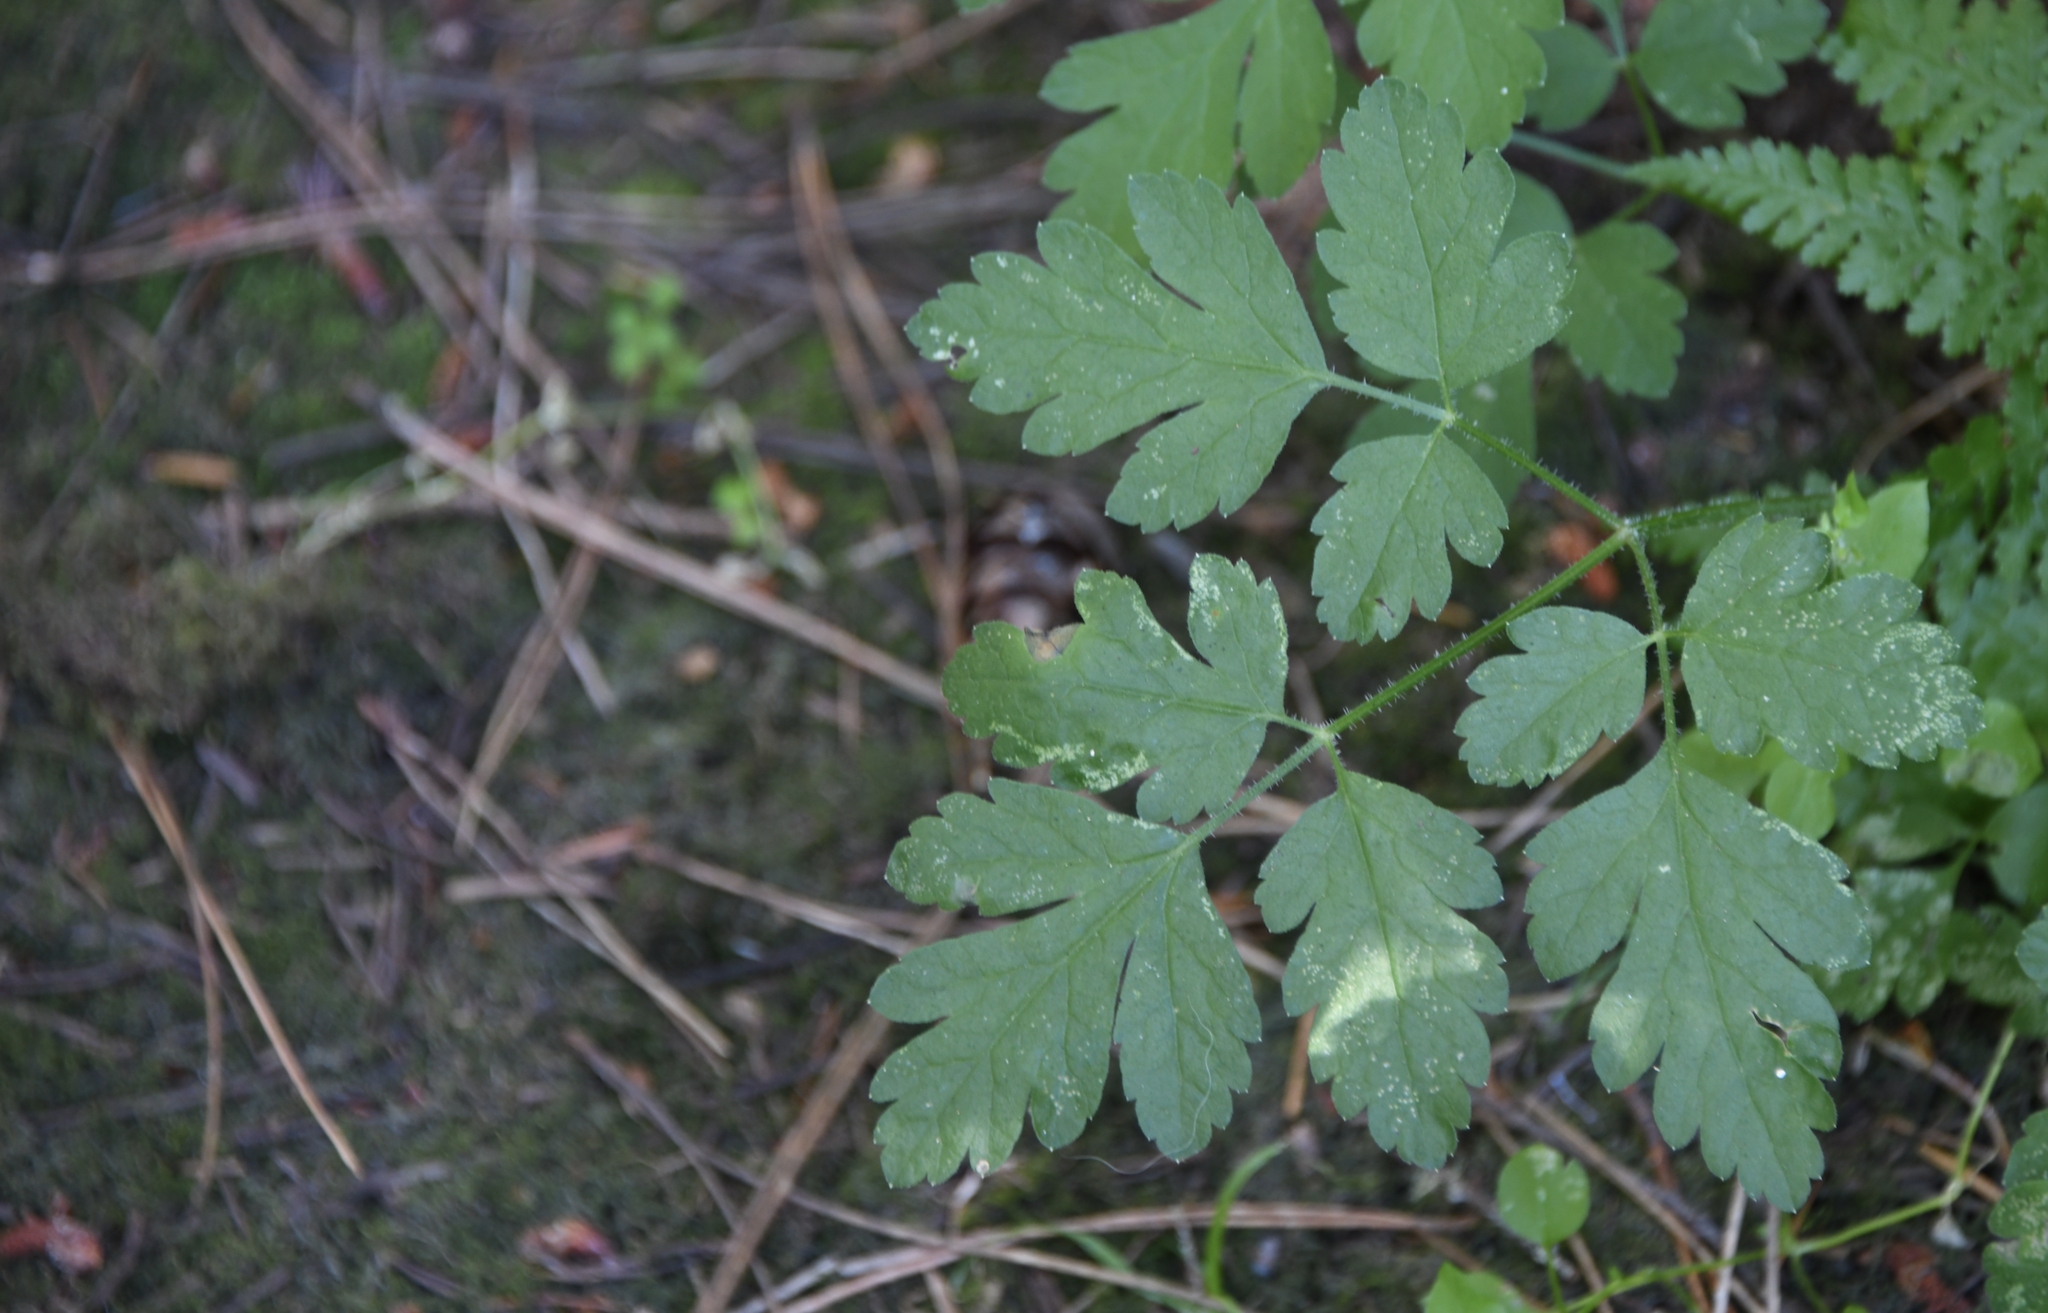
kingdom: Plantae
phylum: Tracheophyta
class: Magnoliopsida
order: Apiales
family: Apiaceae
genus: Osmorhiza
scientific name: Osmorhiza berteroi
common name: Mountain sweet cicely
